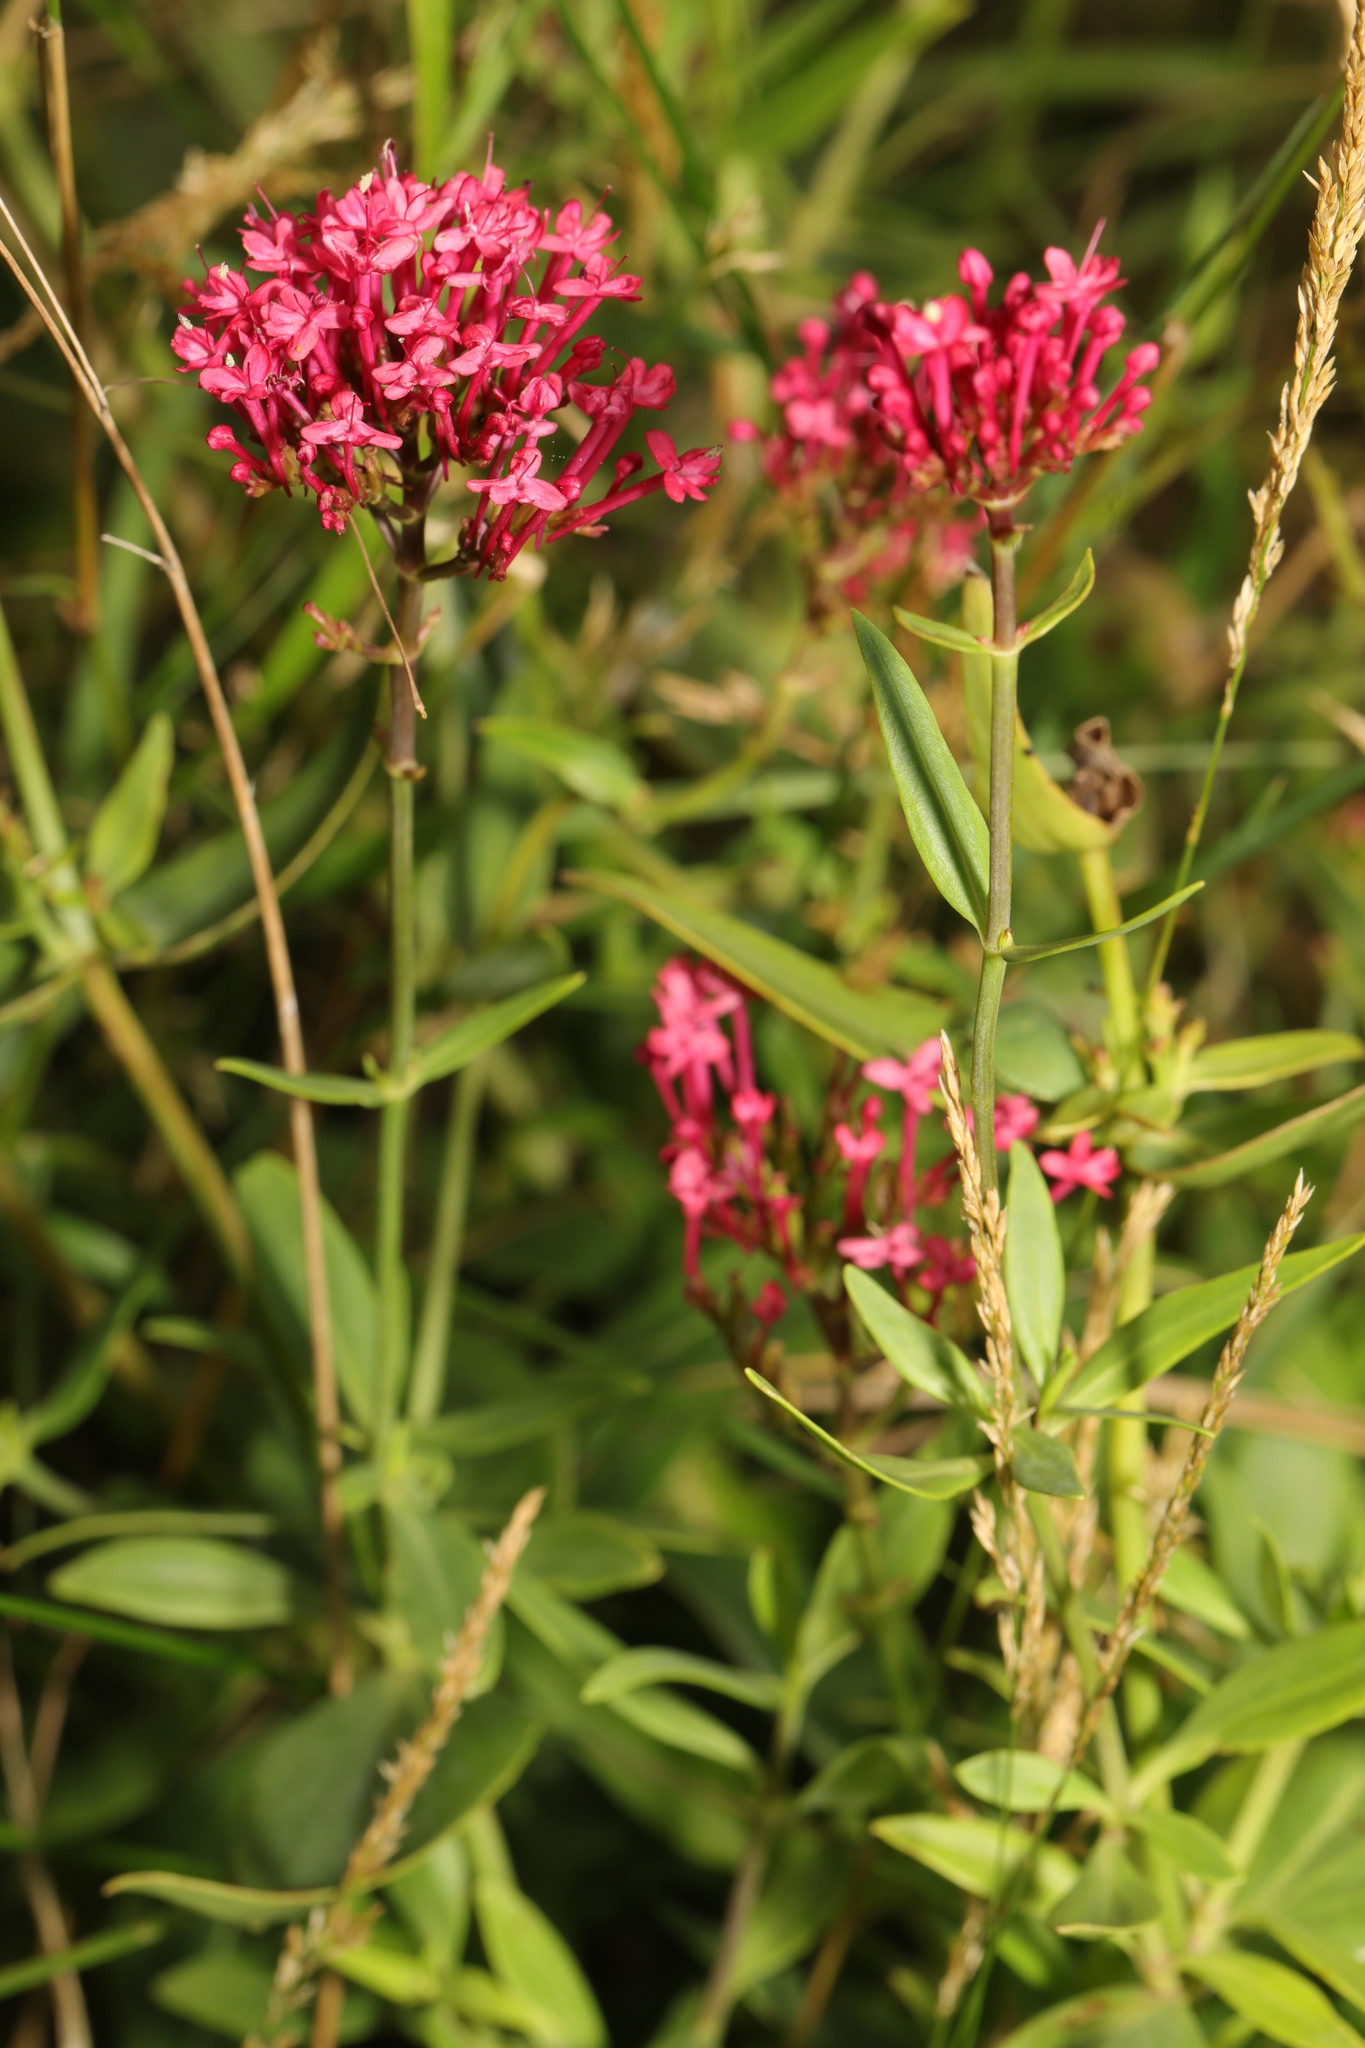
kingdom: Plantae
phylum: Tracheophyta
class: Magnoliopsida
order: Dipsacales
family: Caprifoliaceae
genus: Centranthus
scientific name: Centranthus ruber
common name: Red valerian
